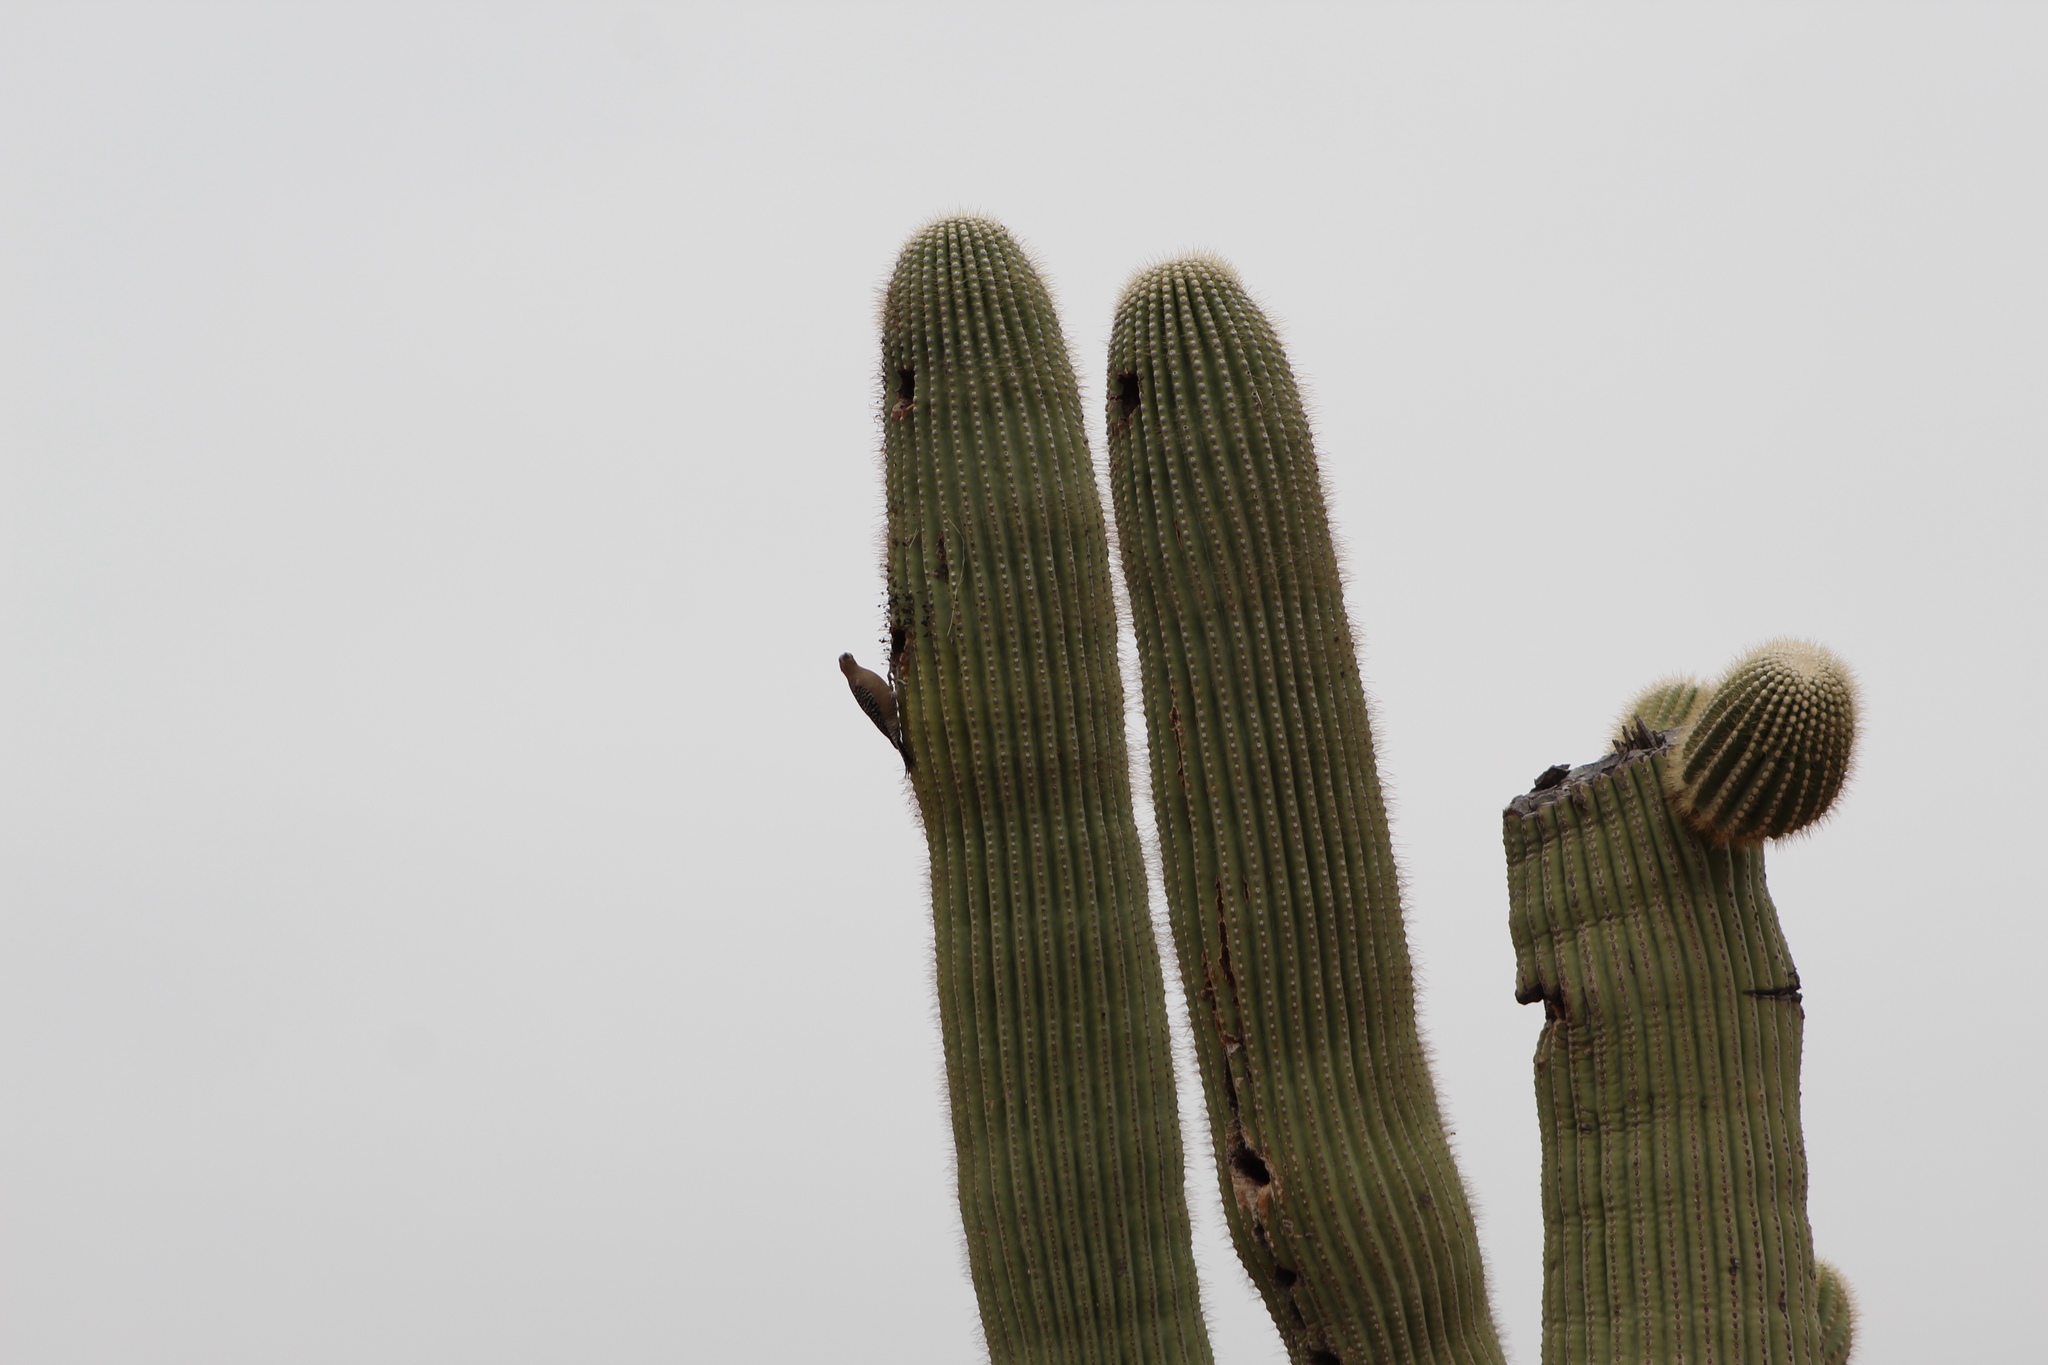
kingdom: Animalia
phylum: Chordata
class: Aves
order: Piciformes
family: Picidae
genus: Melanerpes
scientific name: Melanerpes uropygialis
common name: Gila woodpecker
